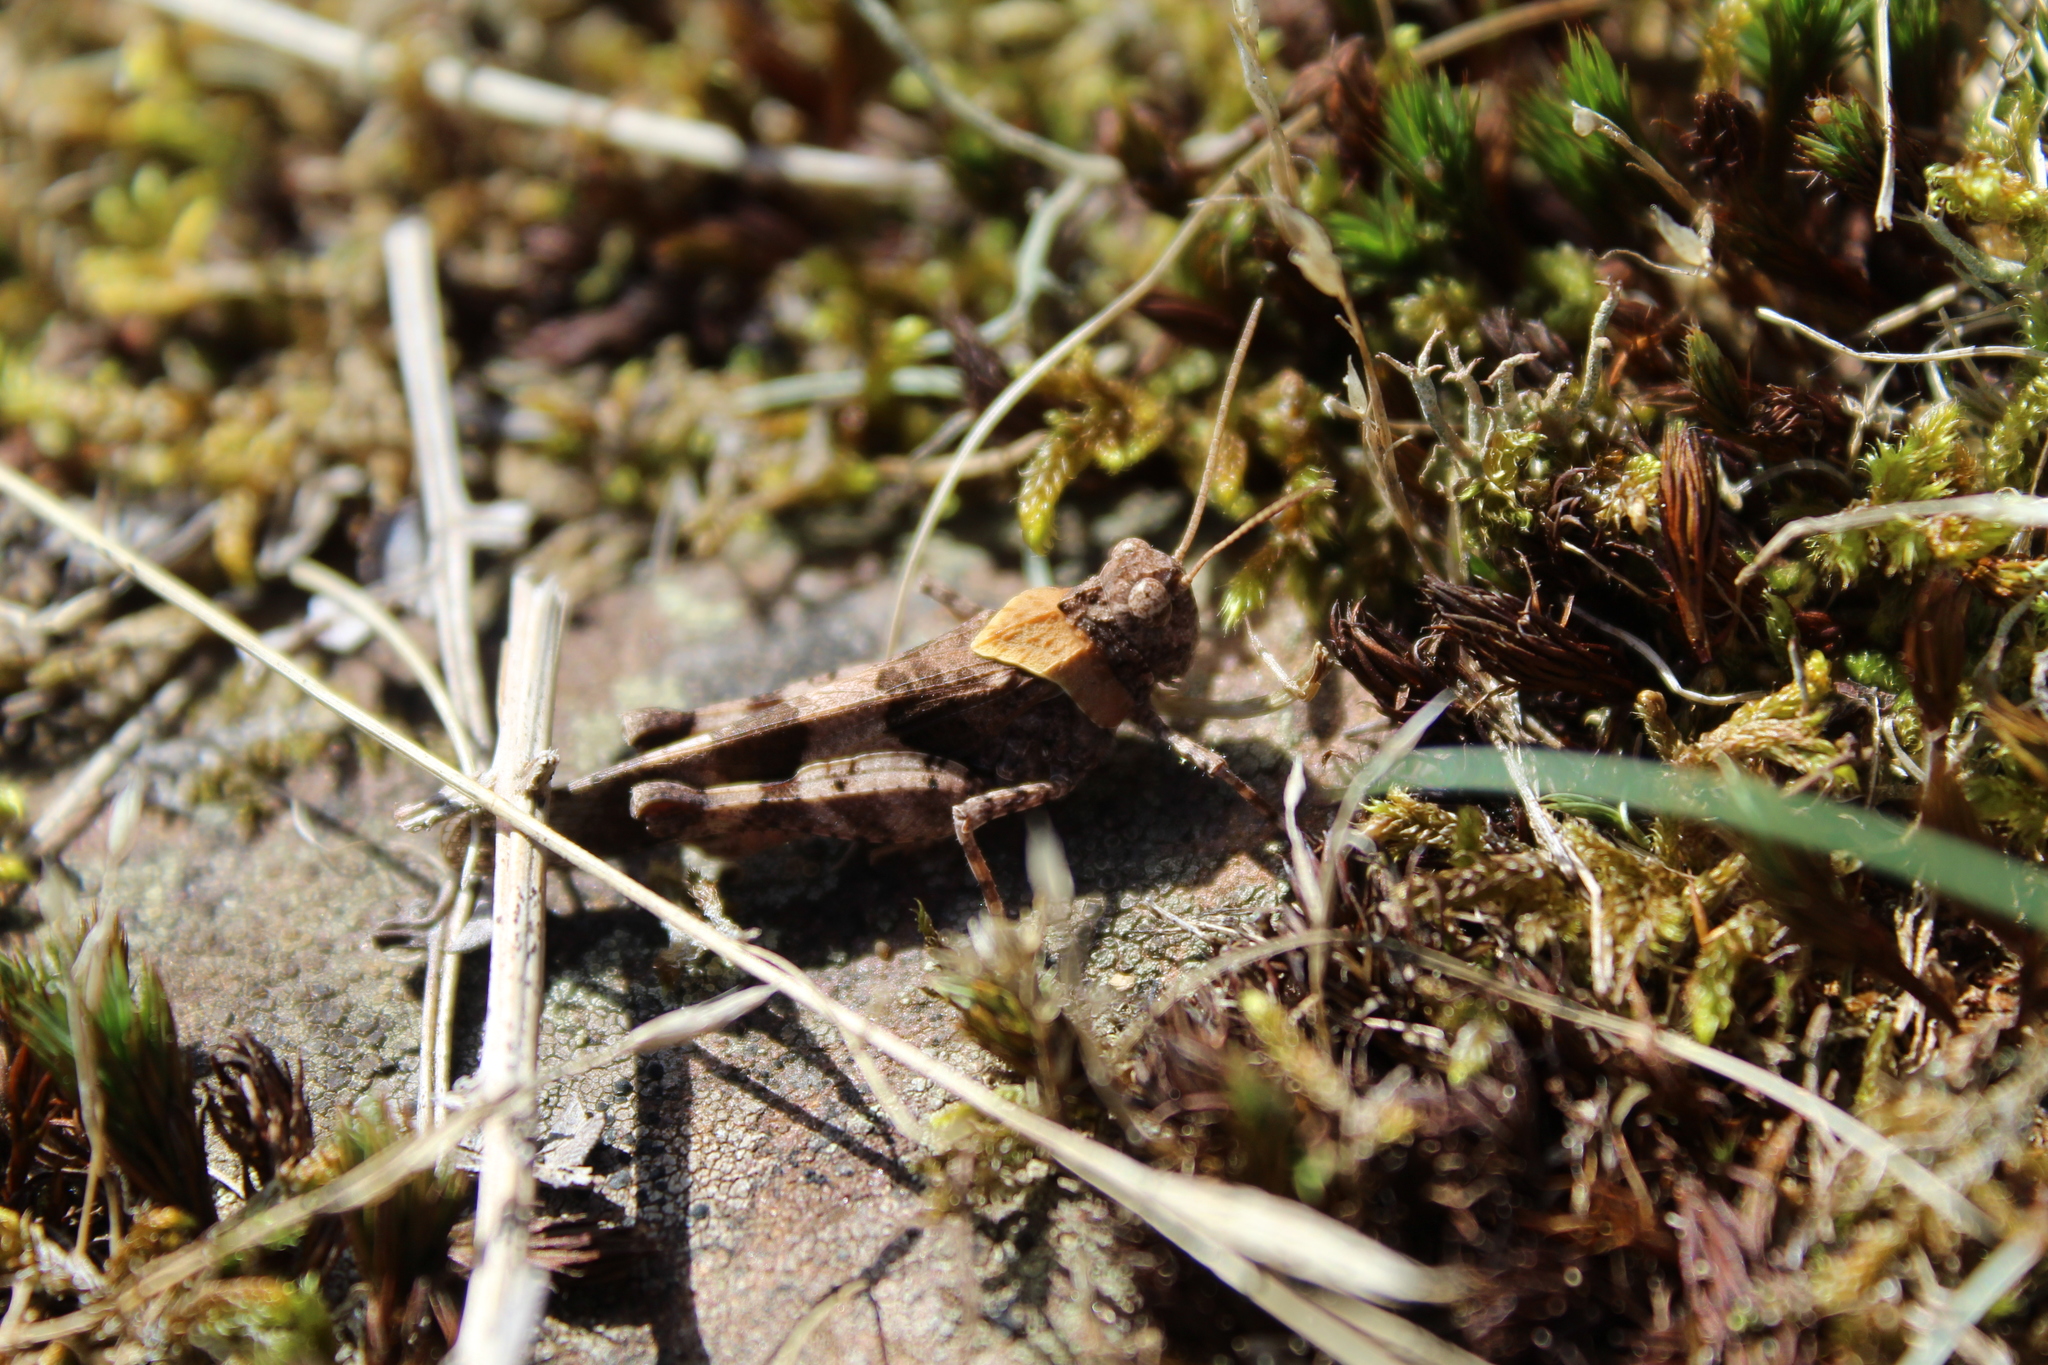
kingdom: Animalia
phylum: Arthropoda
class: Insecta
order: Orthoptera
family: Acrididae
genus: Oedipoda
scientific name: Oedipoda caerulescens
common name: Blue-winged grasshopper
